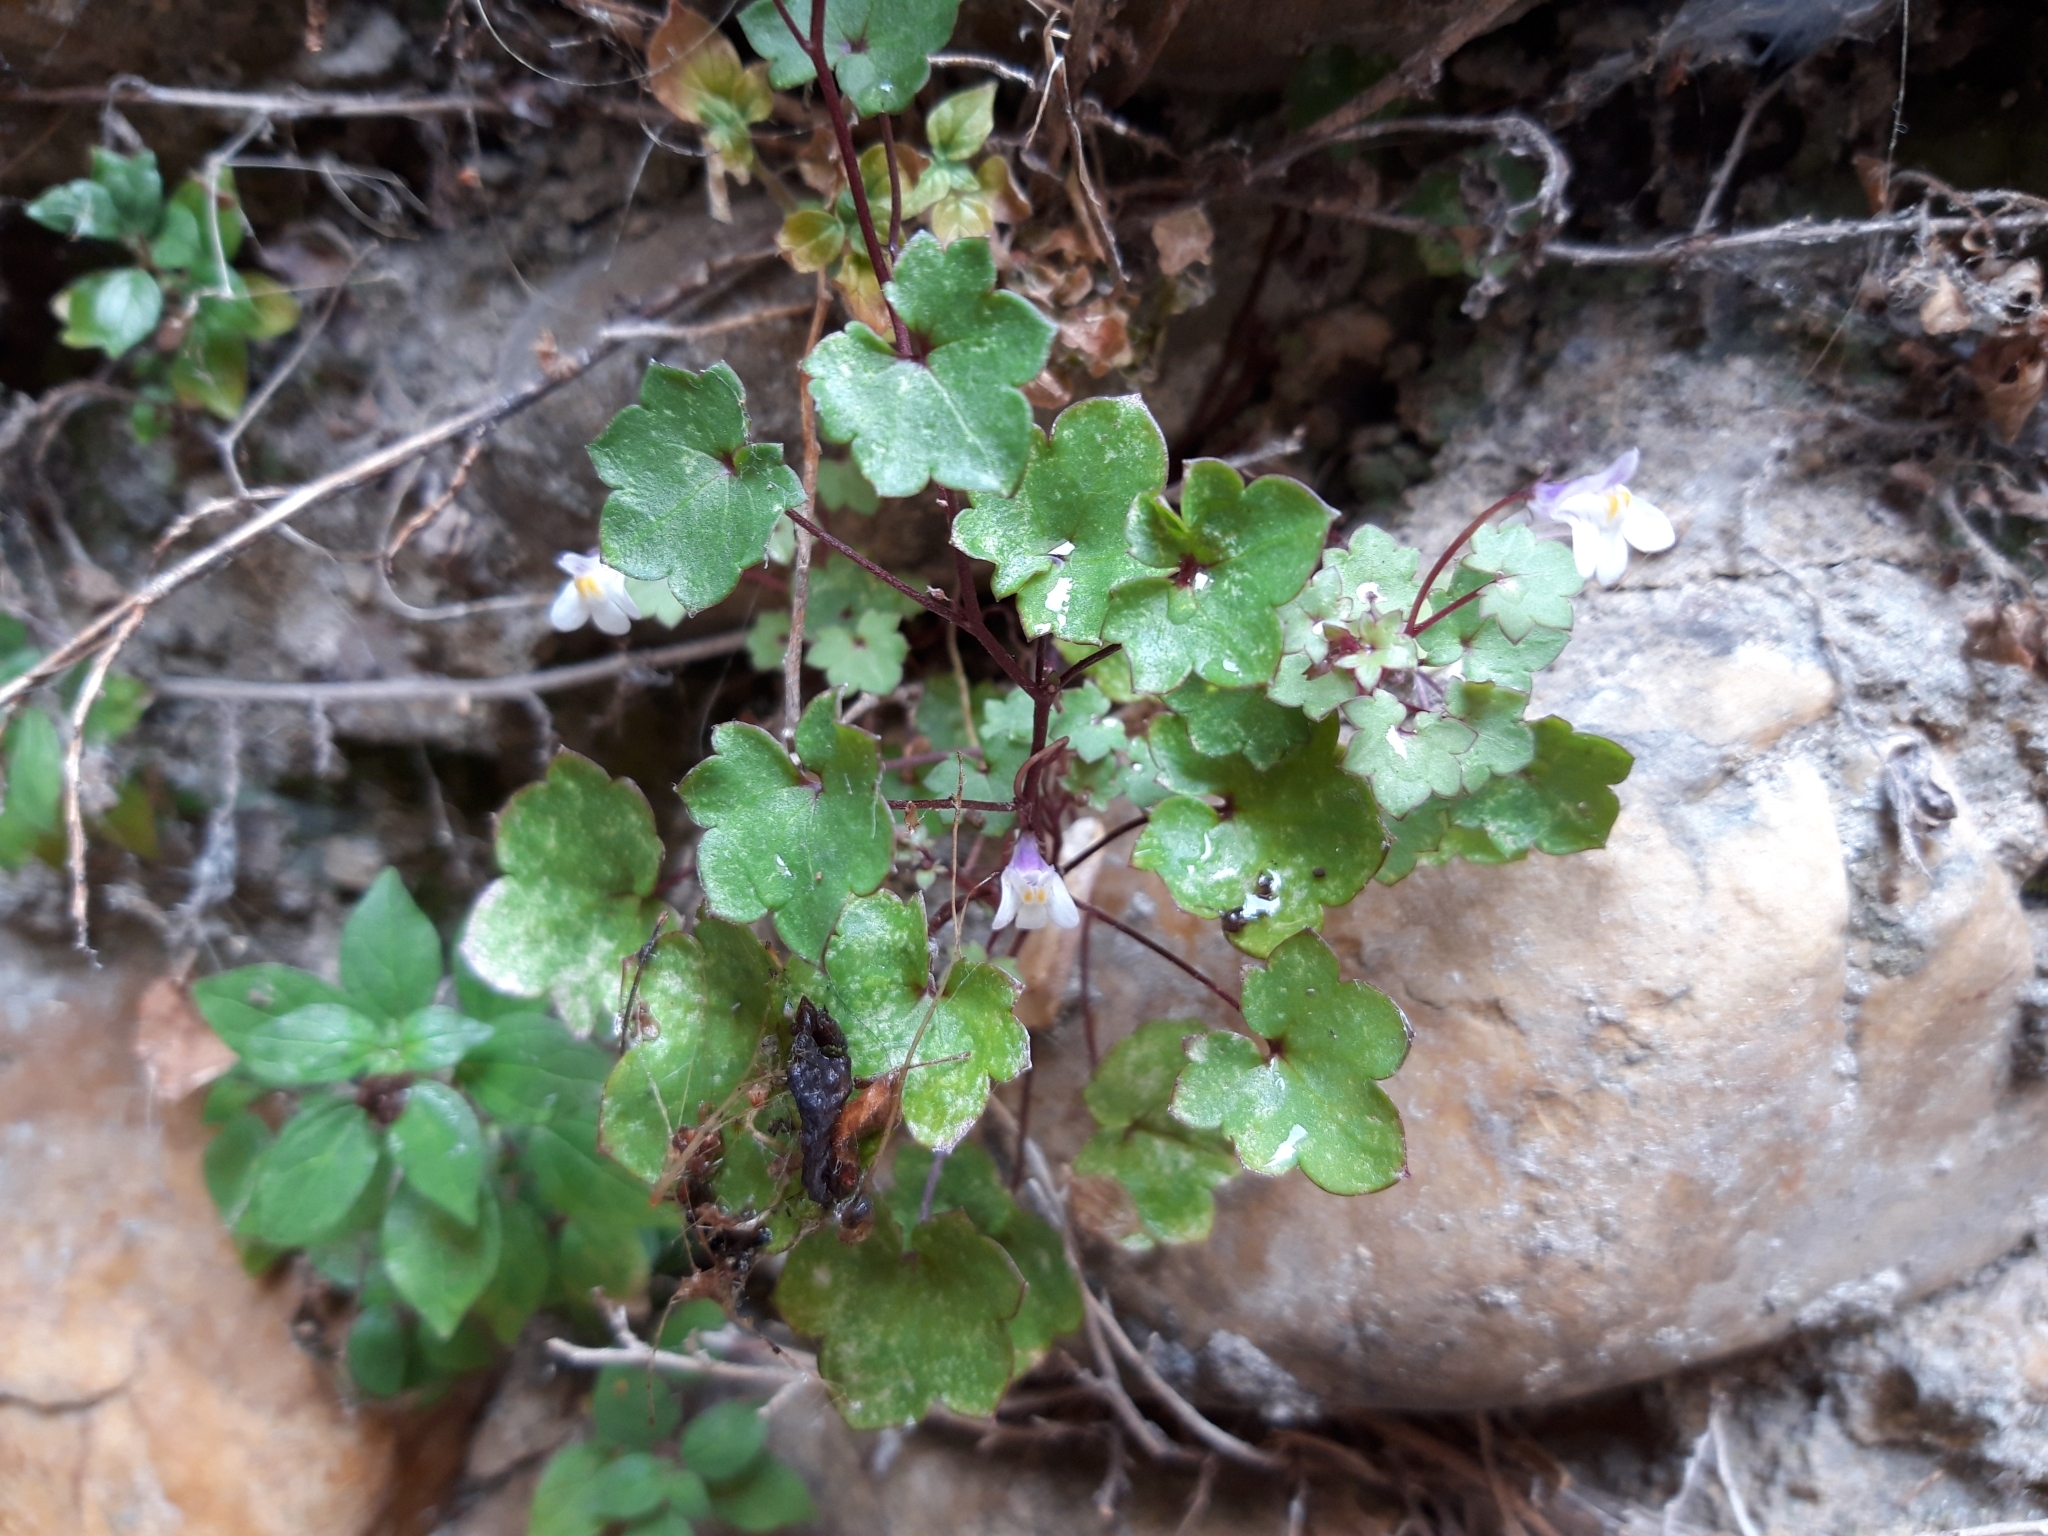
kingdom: Plantae
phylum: Tracheophyta
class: Magnoliopsida
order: Lamiales
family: Plantaginaceae
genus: Cymbalaria
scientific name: Cymbalaria muralis
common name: Ivy-leaved toadflax
